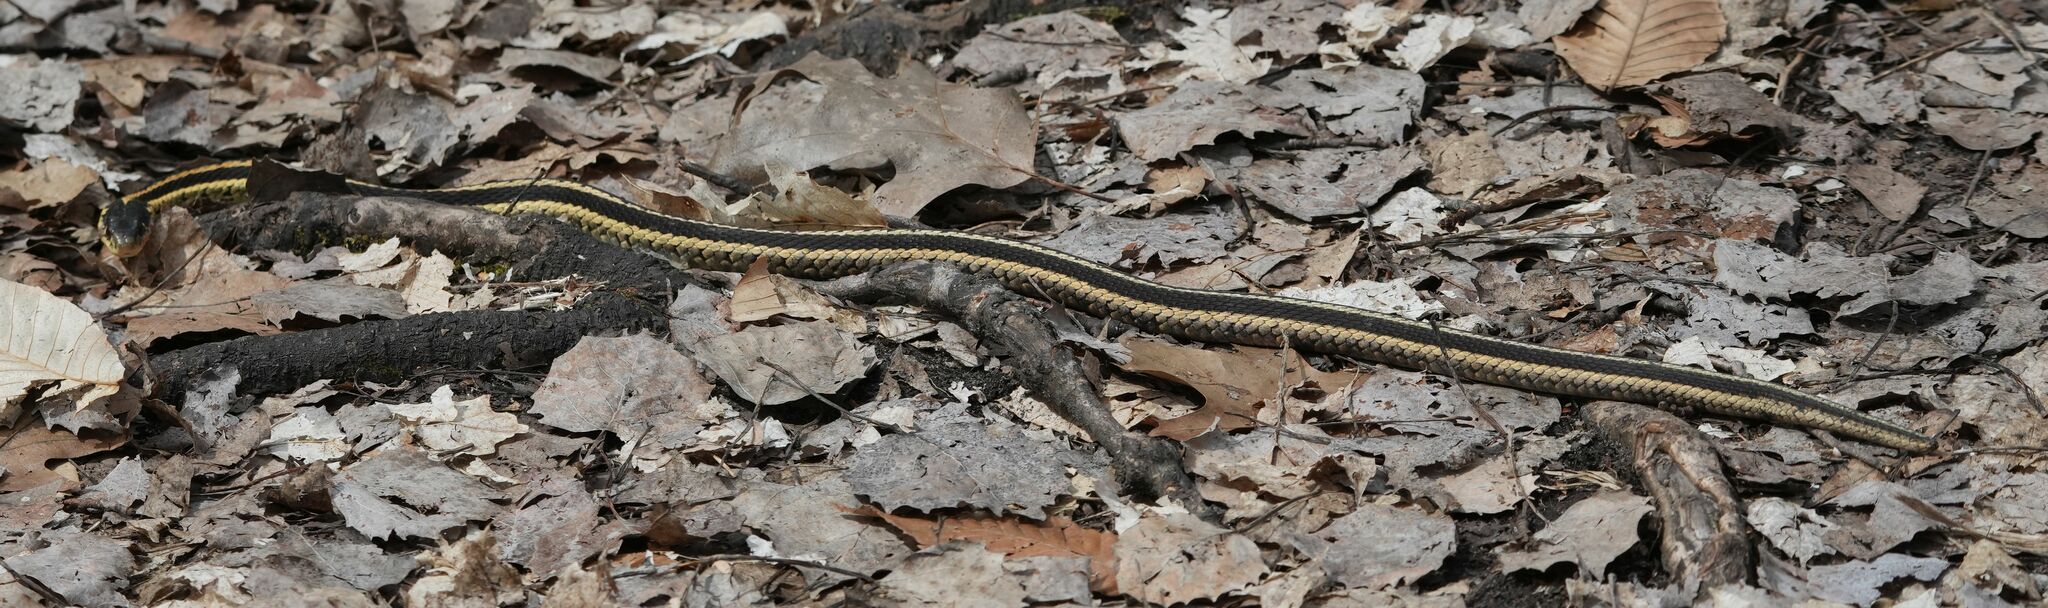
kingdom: Animalia
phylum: Chordata
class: Squamata
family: Colubridae
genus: Thamnophis
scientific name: Thamnophis sirtalis
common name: Common garter snake
